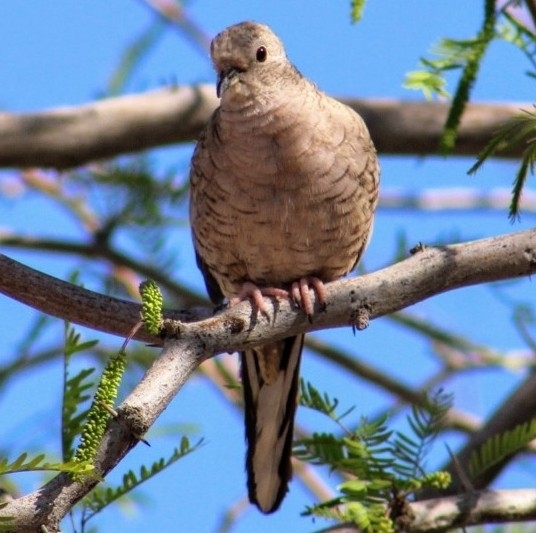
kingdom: Animalia
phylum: Chordata
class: Aves
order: Columbiformes
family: Columbidae
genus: Columbina
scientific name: Columbina inca
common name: Inca dove
